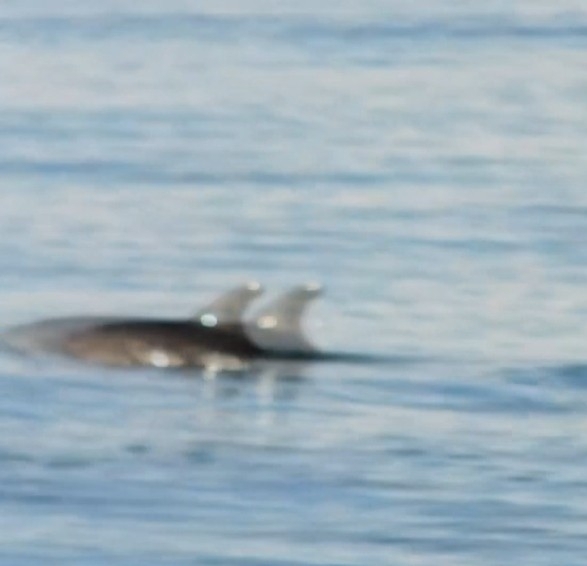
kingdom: Animalia
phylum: Chordata
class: Mammalia
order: Cetacea
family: Delphinidae
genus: Tursiops
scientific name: Tursiops truncatus
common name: Bottlenose dolphin
